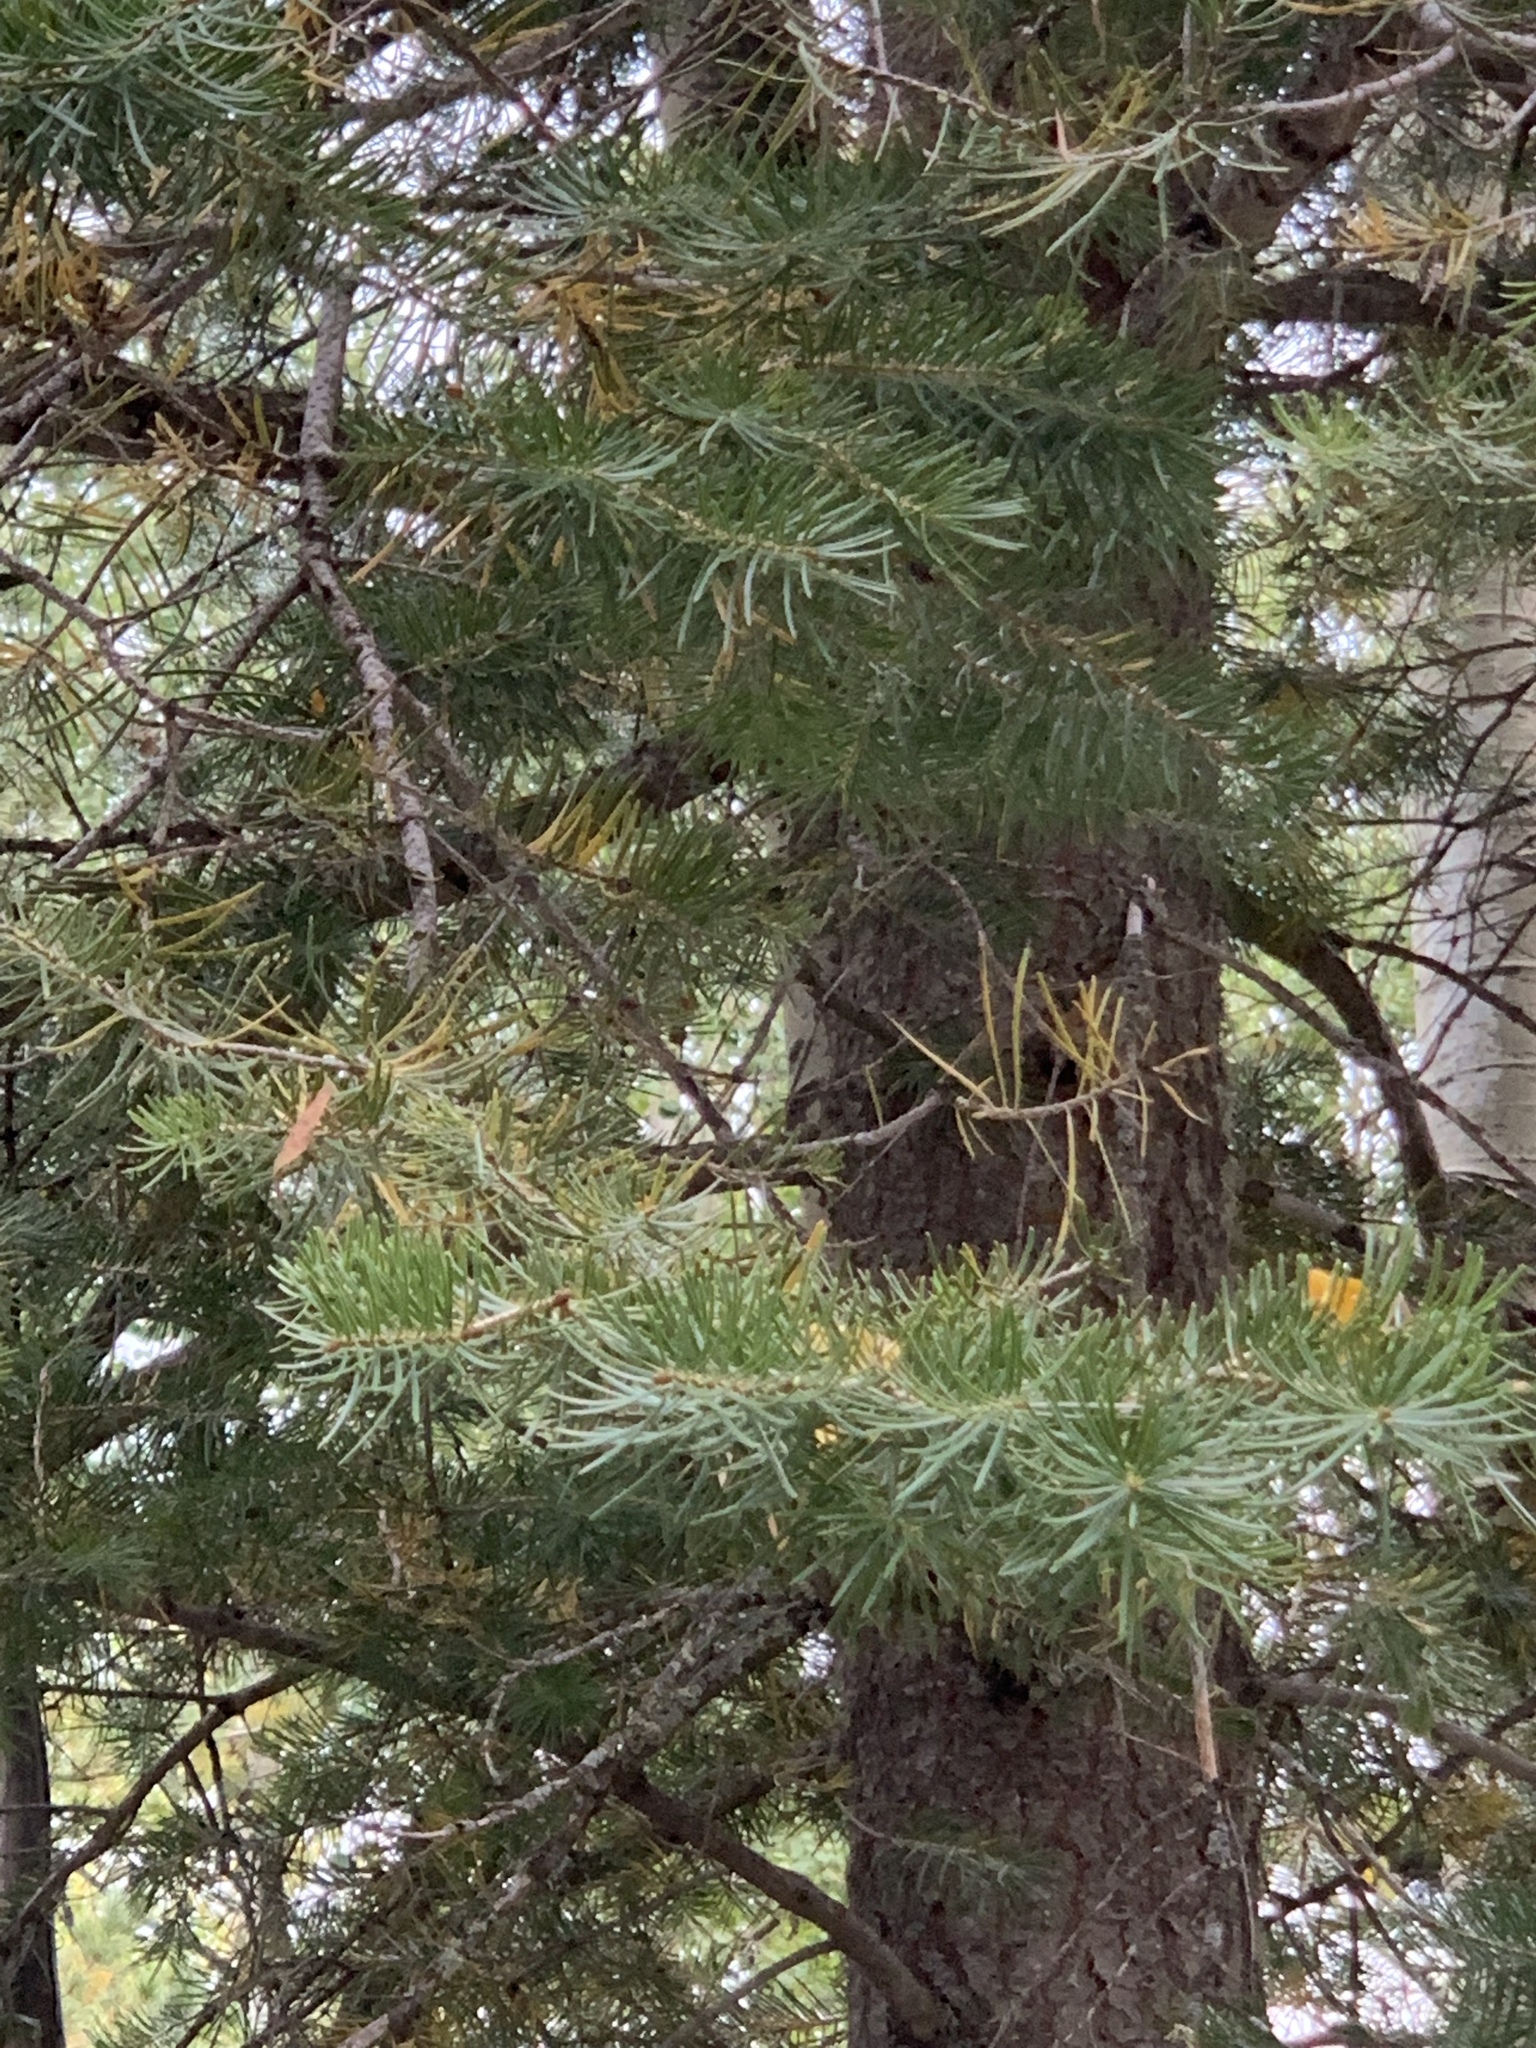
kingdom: Plantae
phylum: Tracheophyta
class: Pinopsida
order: Pinales
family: Pinaceae
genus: Abies
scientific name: Abies concolor
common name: Colorado fir
